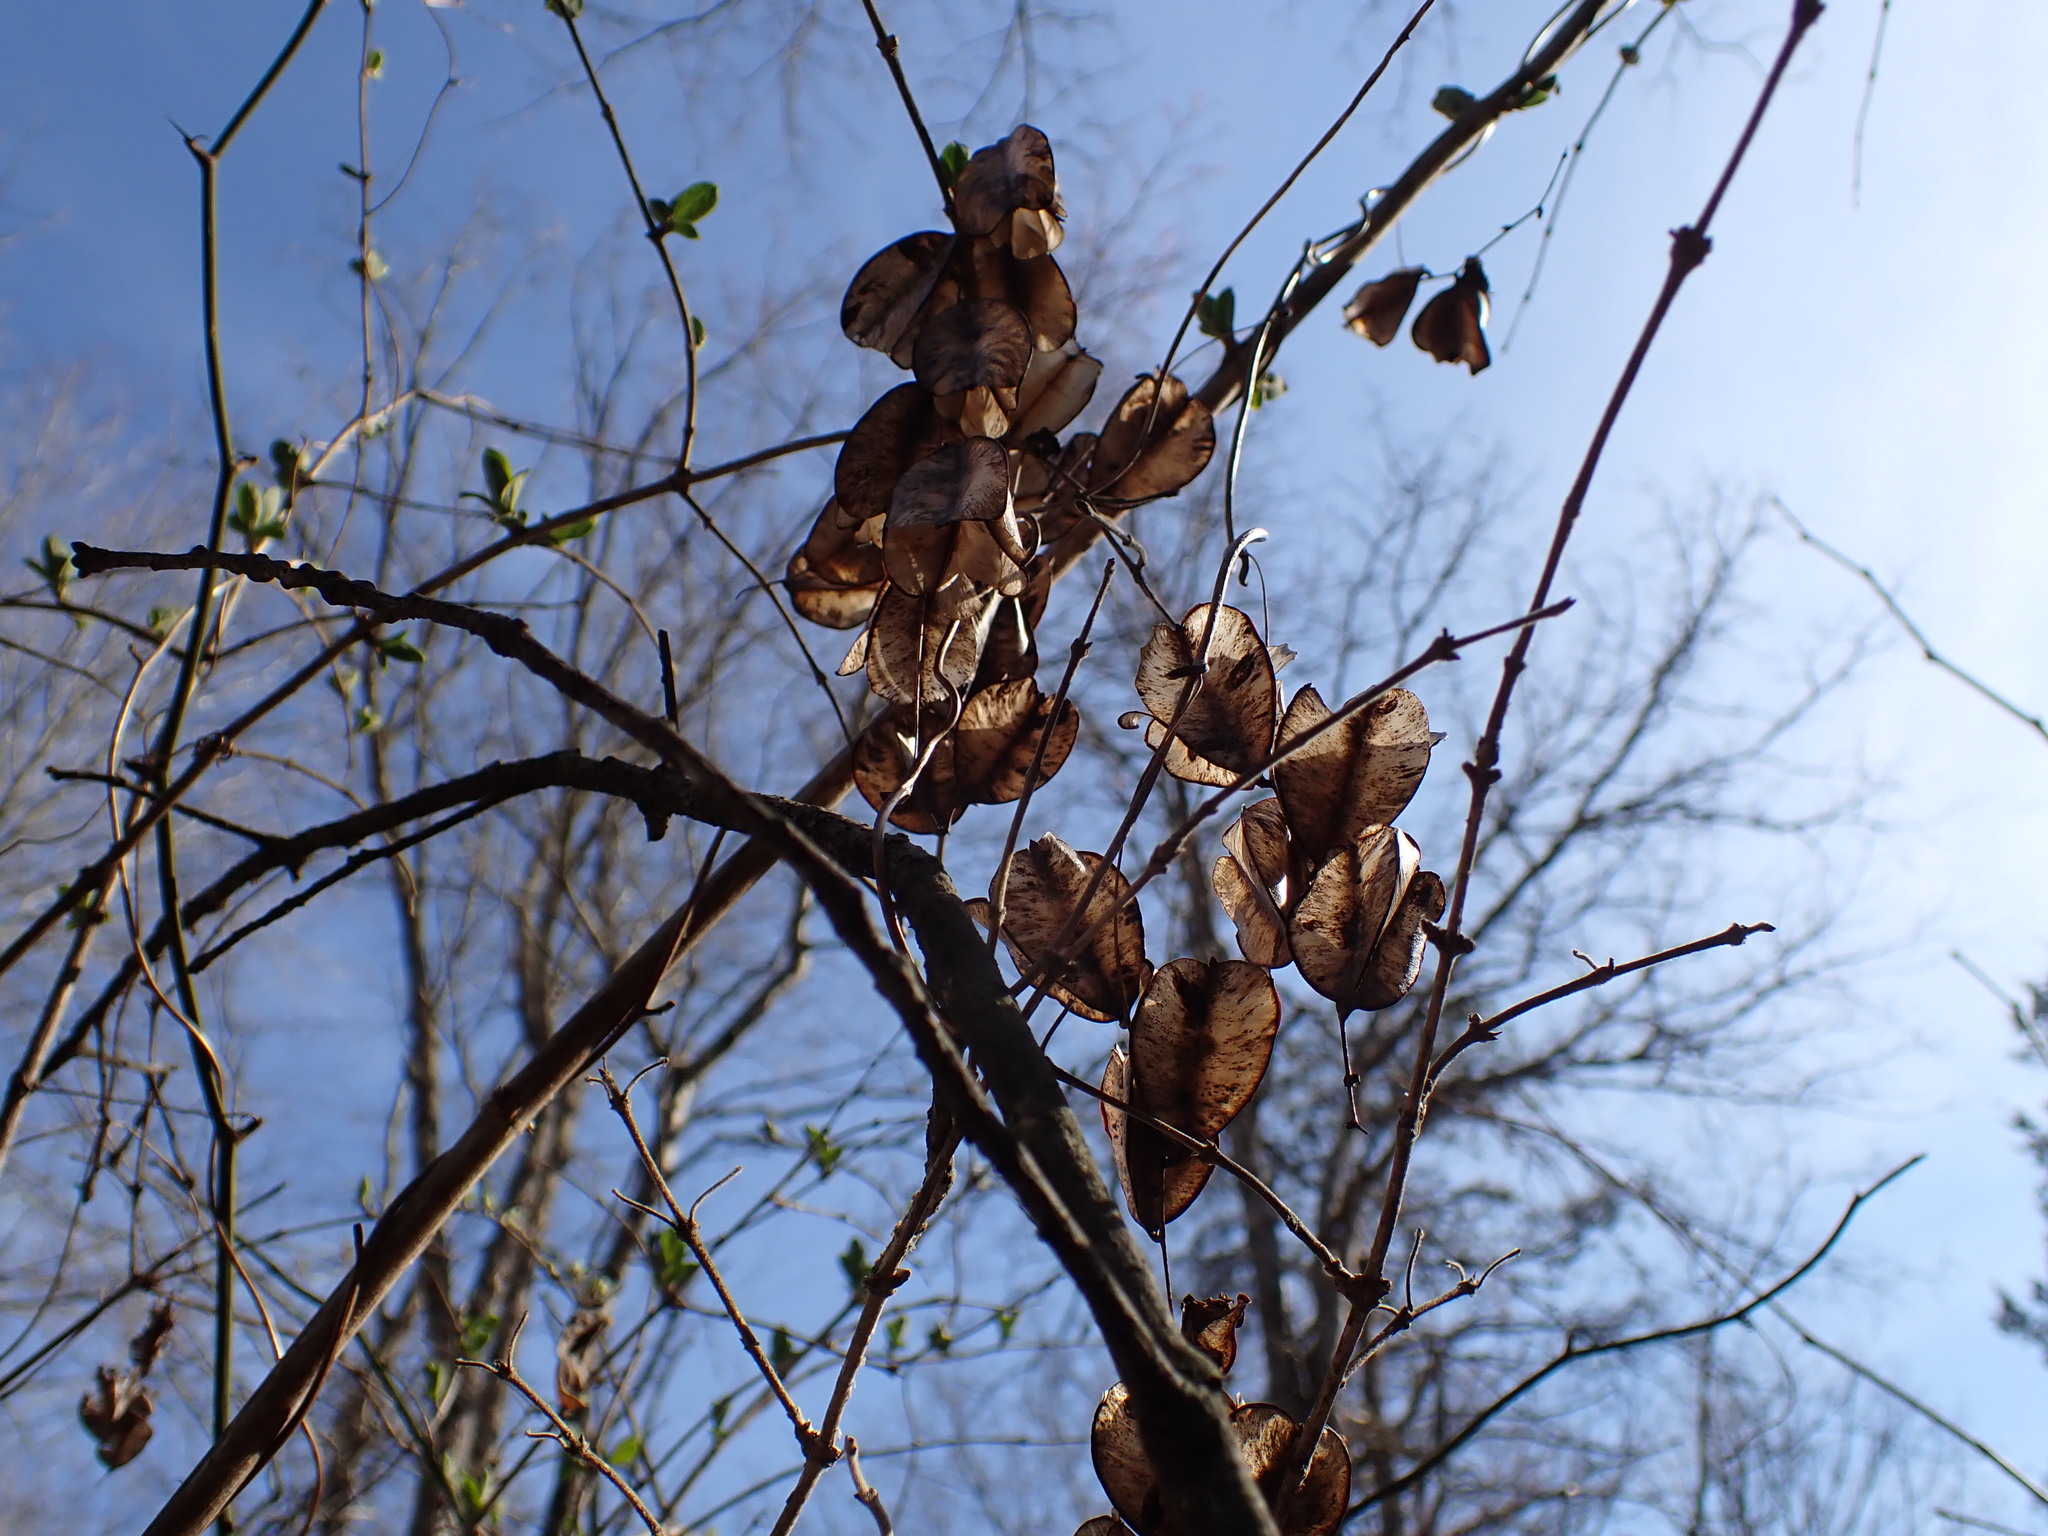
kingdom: Plantae
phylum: Tracheophyta
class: Liliopsida
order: Dioscoreales
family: Dioscoreaceae
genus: Dioscorea
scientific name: Dioscorea villosa
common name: Wild yam
